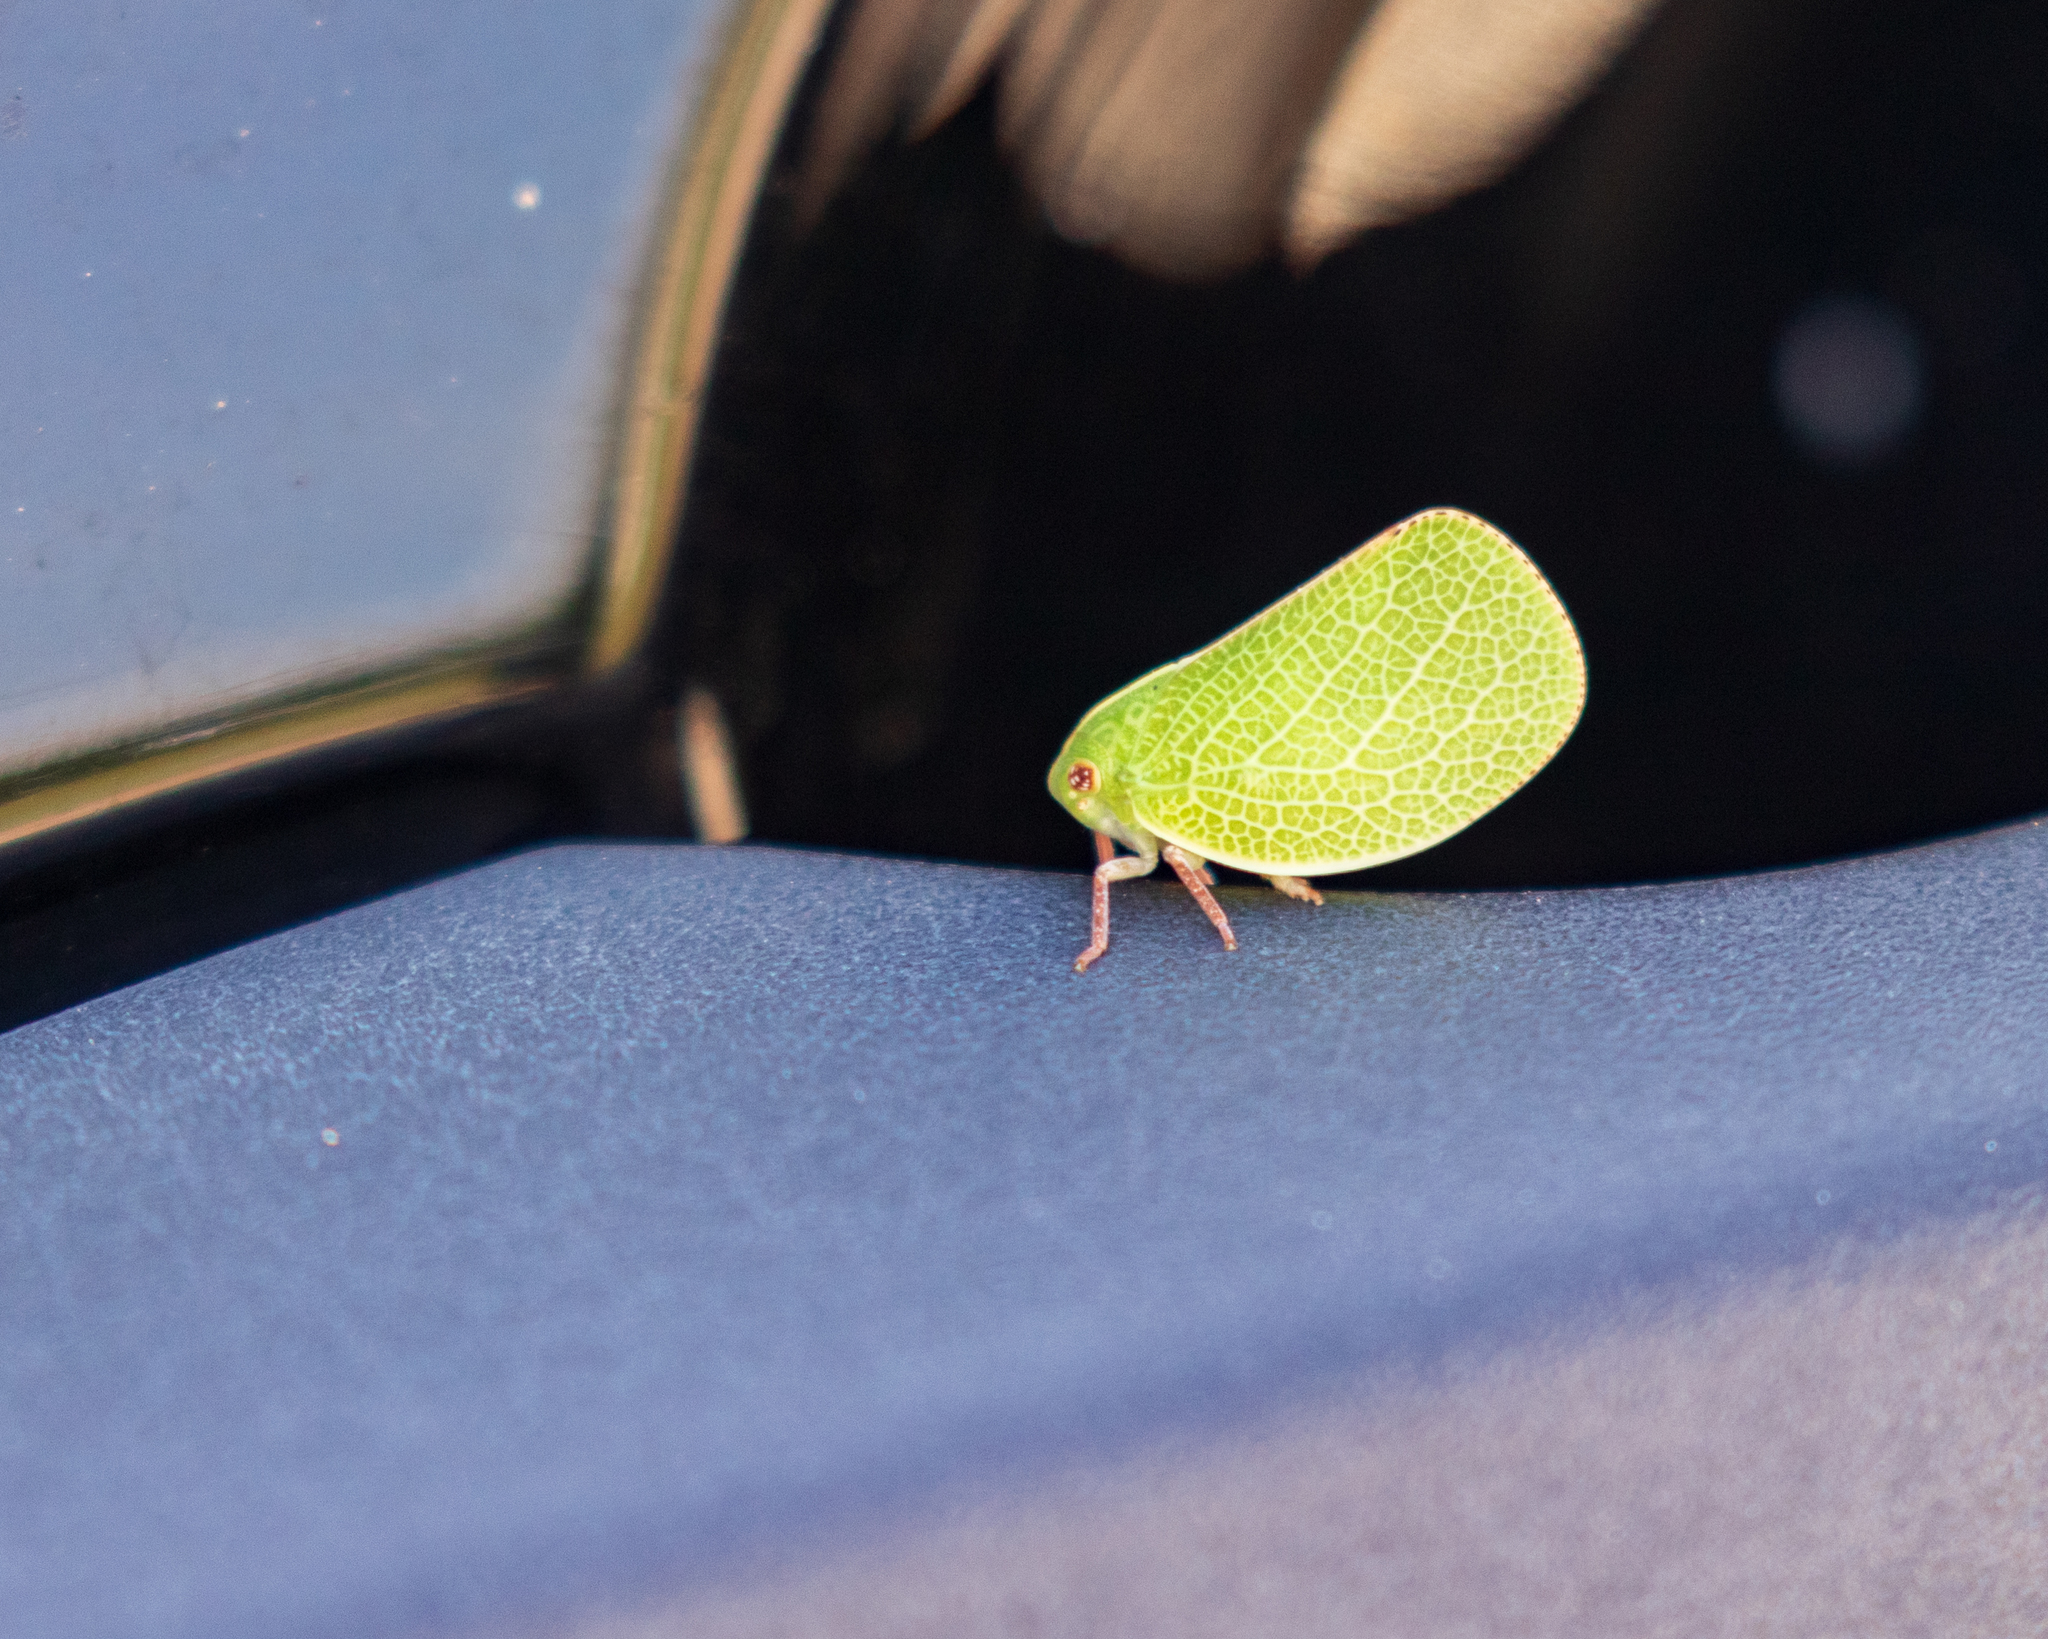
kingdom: Animalia
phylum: Arthropoda
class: Insecta
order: Hemiptera
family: Acanaloniidae
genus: Acanalonia
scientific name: Acanalonia servillei
